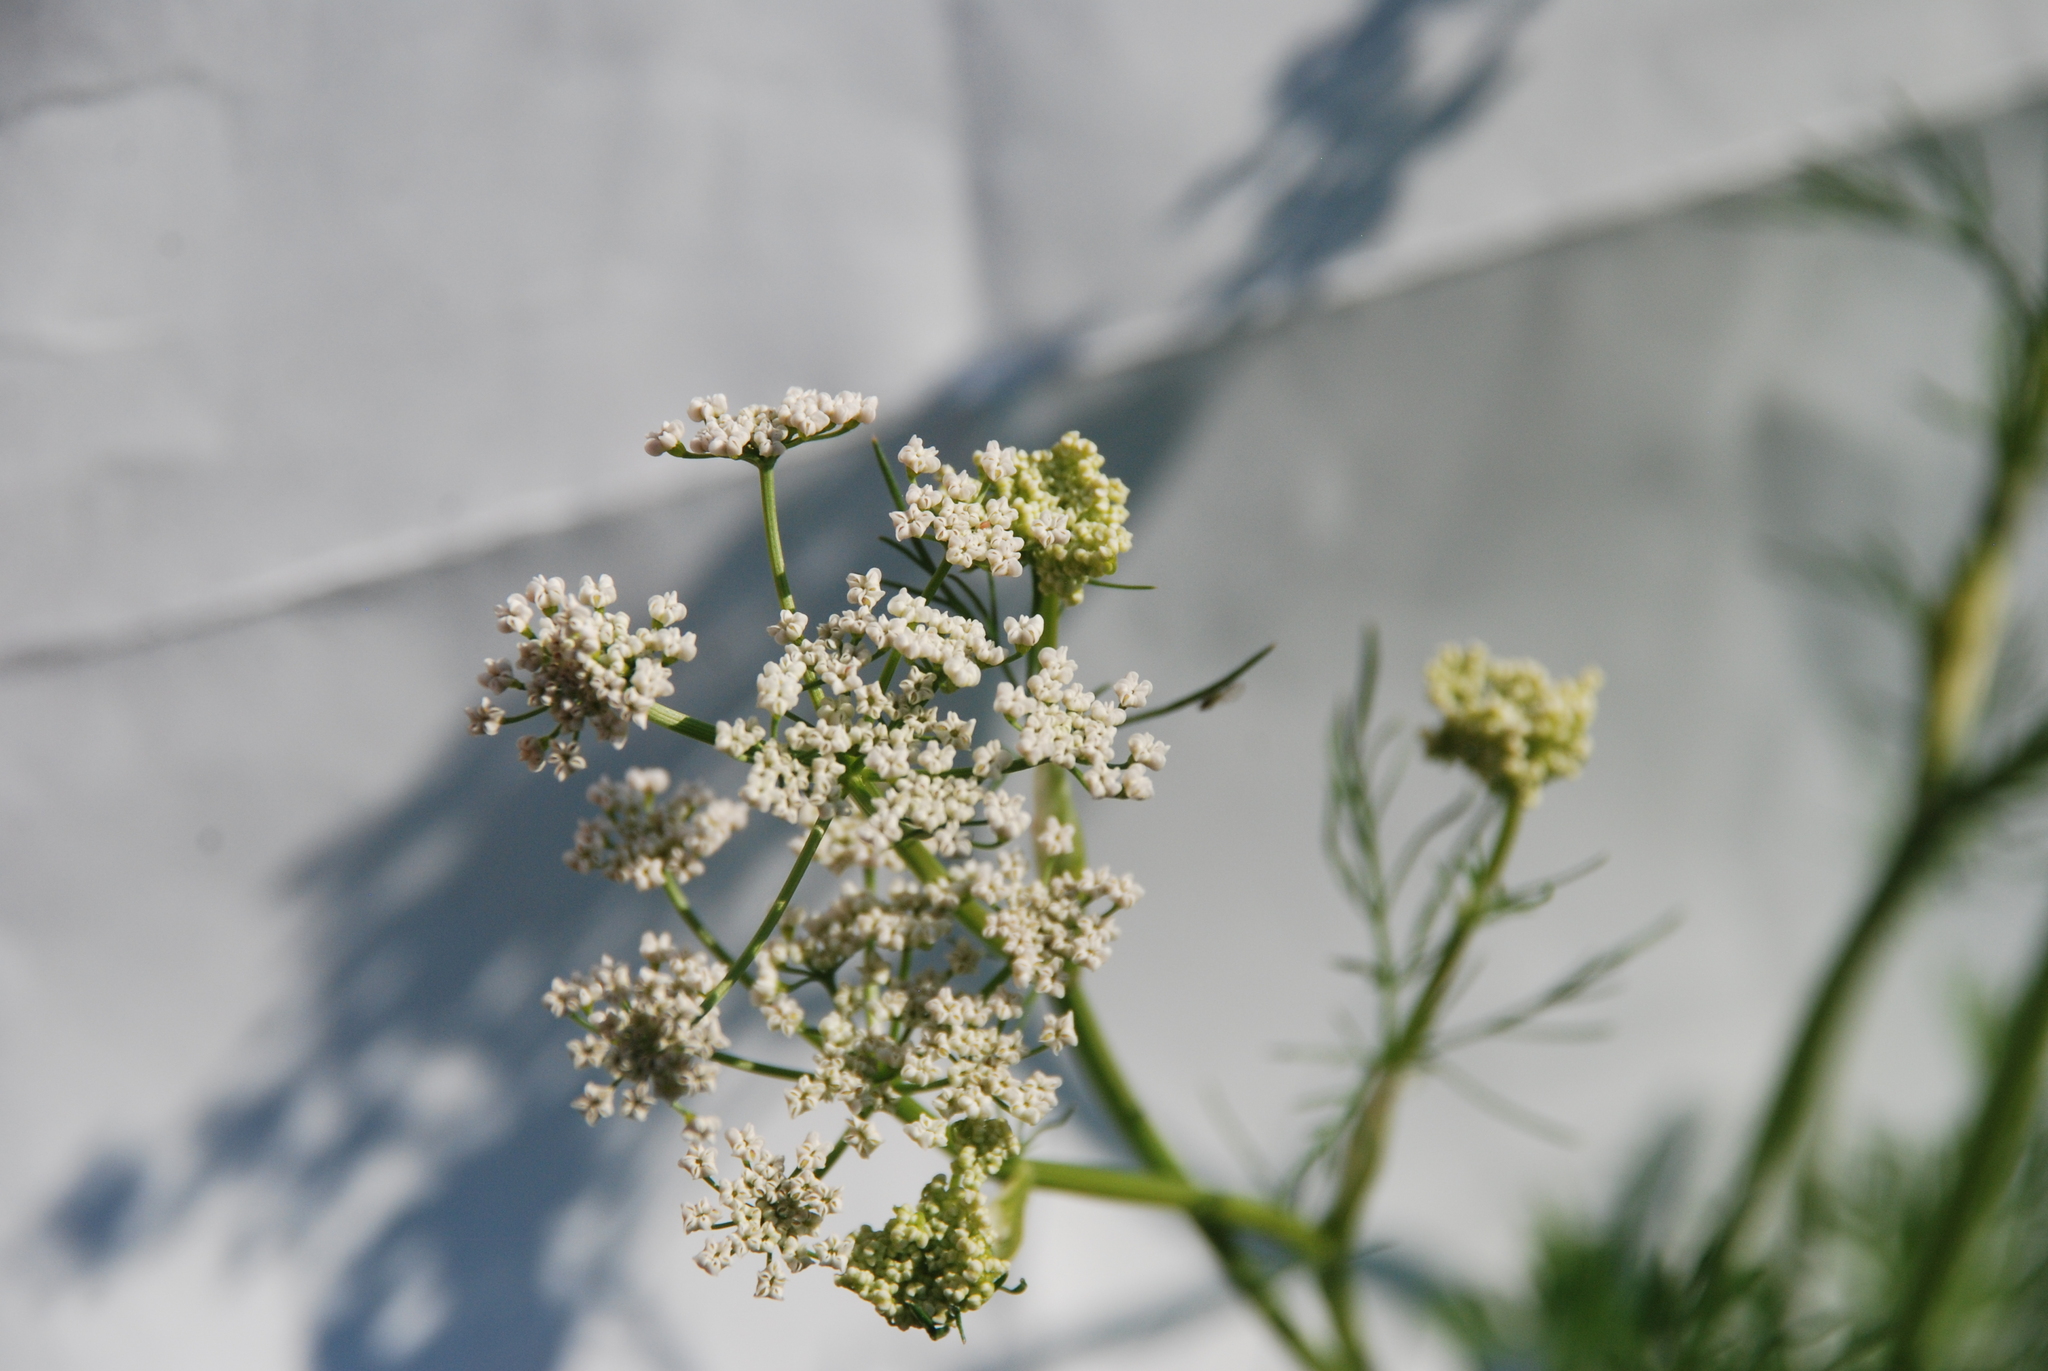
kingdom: Plantae
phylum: Tracheophyta
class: Magnoliopsida
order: Apiales
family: Apiaceae
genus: Carum
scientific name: Carum carvi
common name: Caraway
